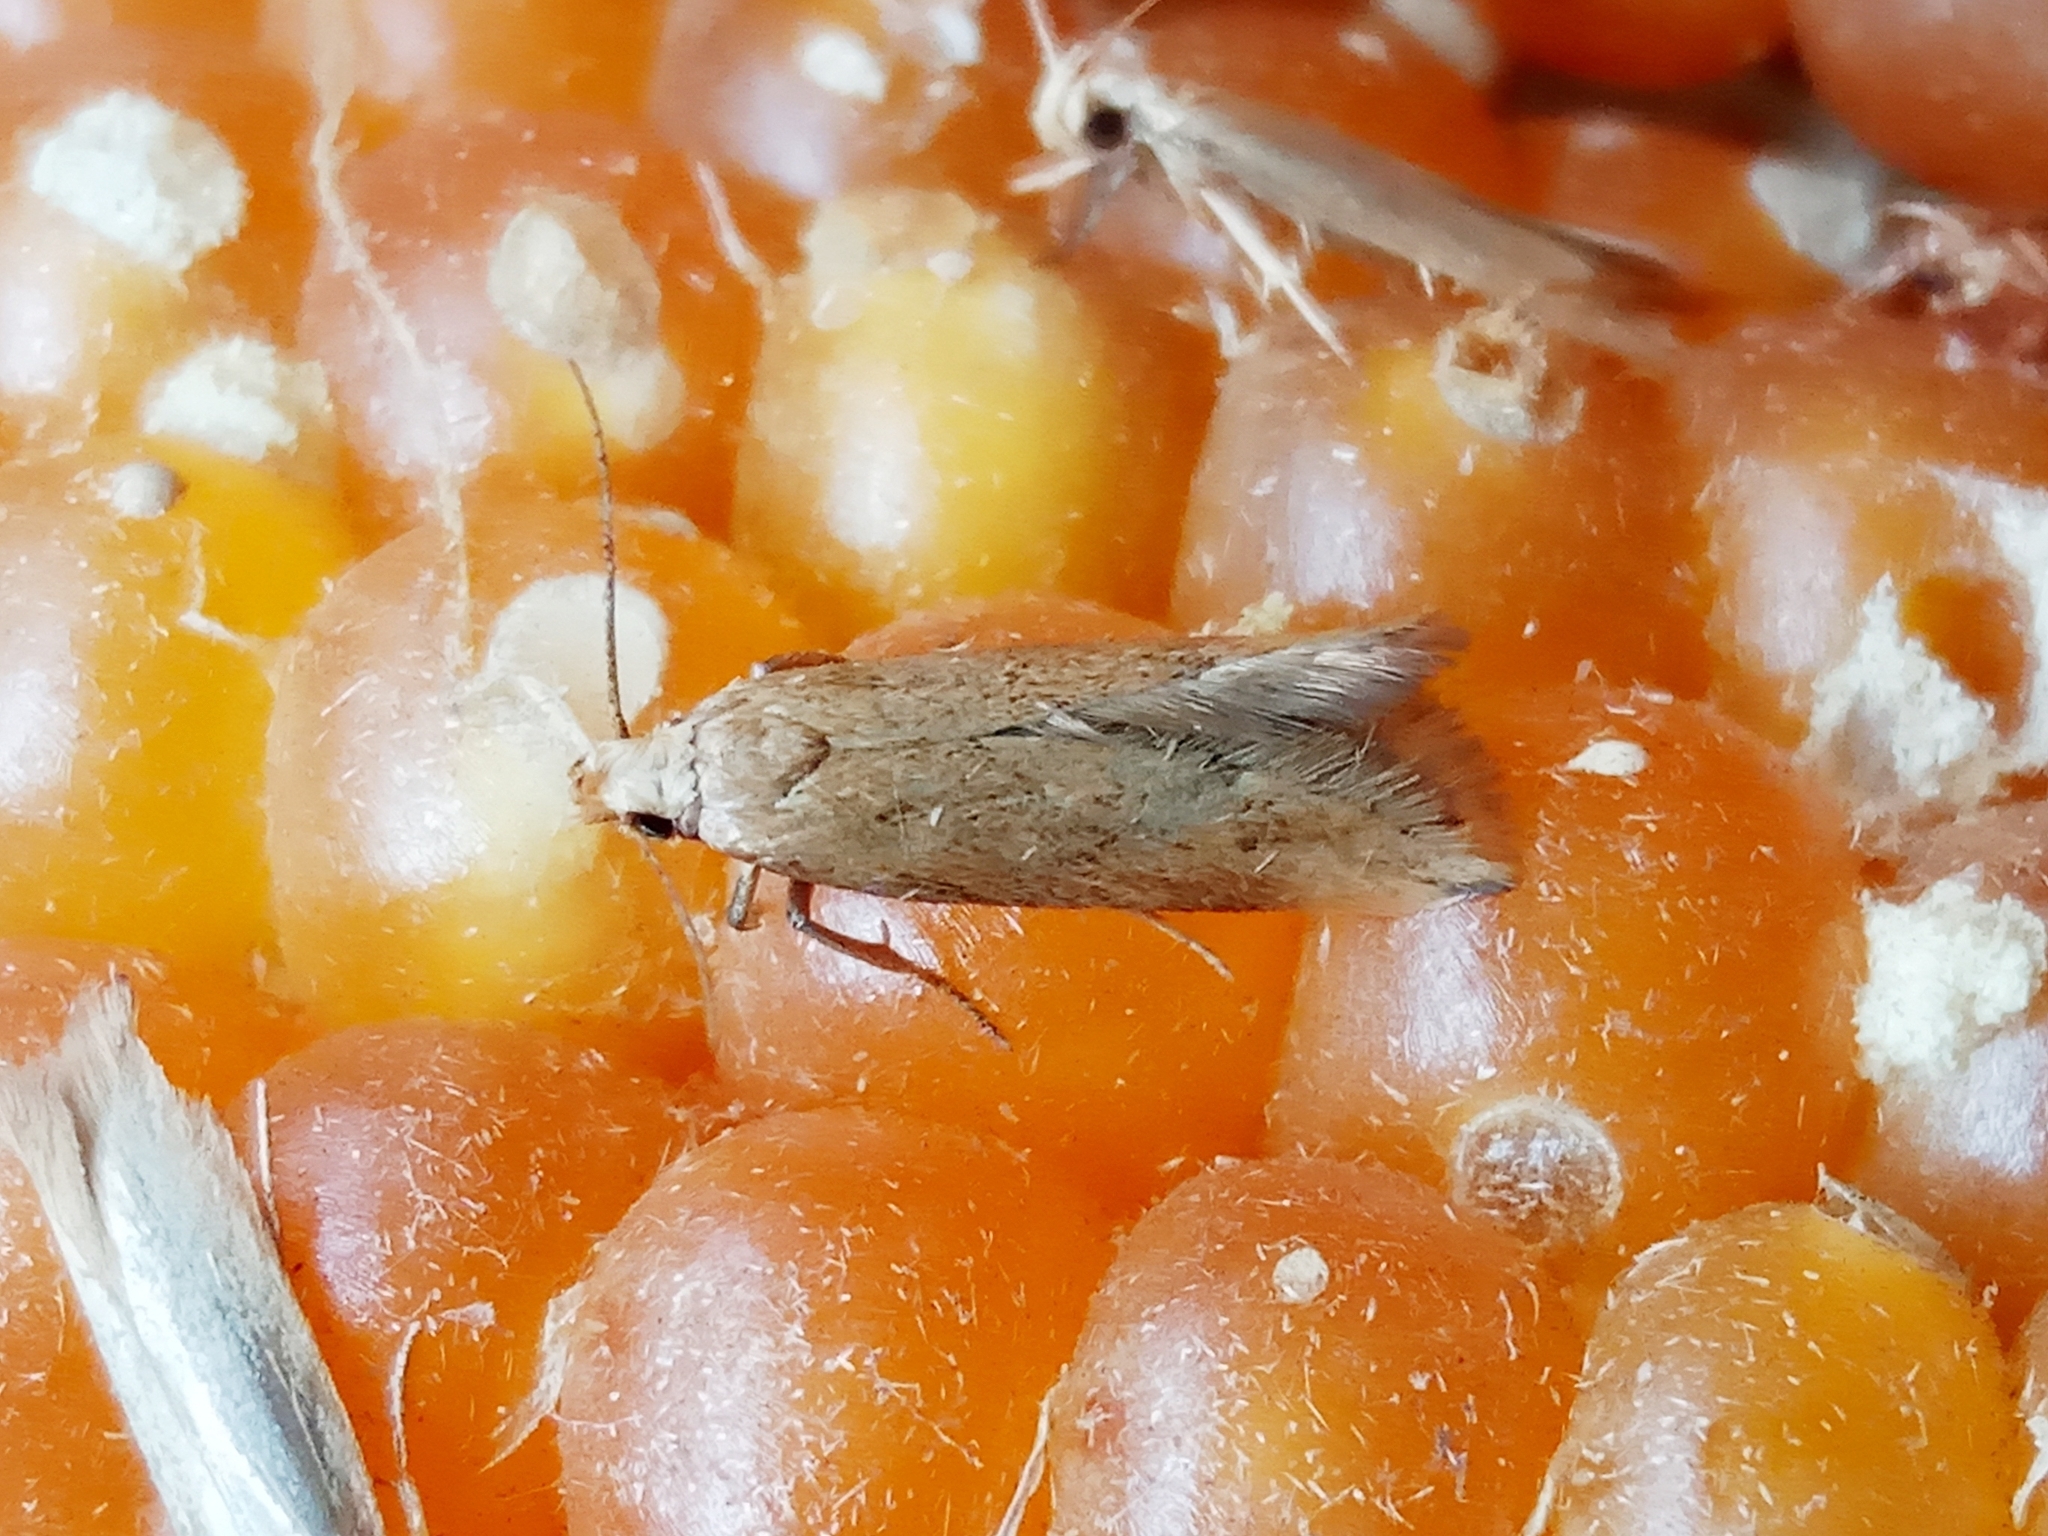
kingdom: Animalia
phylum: Arthropoda
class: Insecta
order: Lepidoptera
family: Gelechiidae
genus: Sitotroga
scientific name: Sitotroga cerealella
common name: Angoumois grain moth
